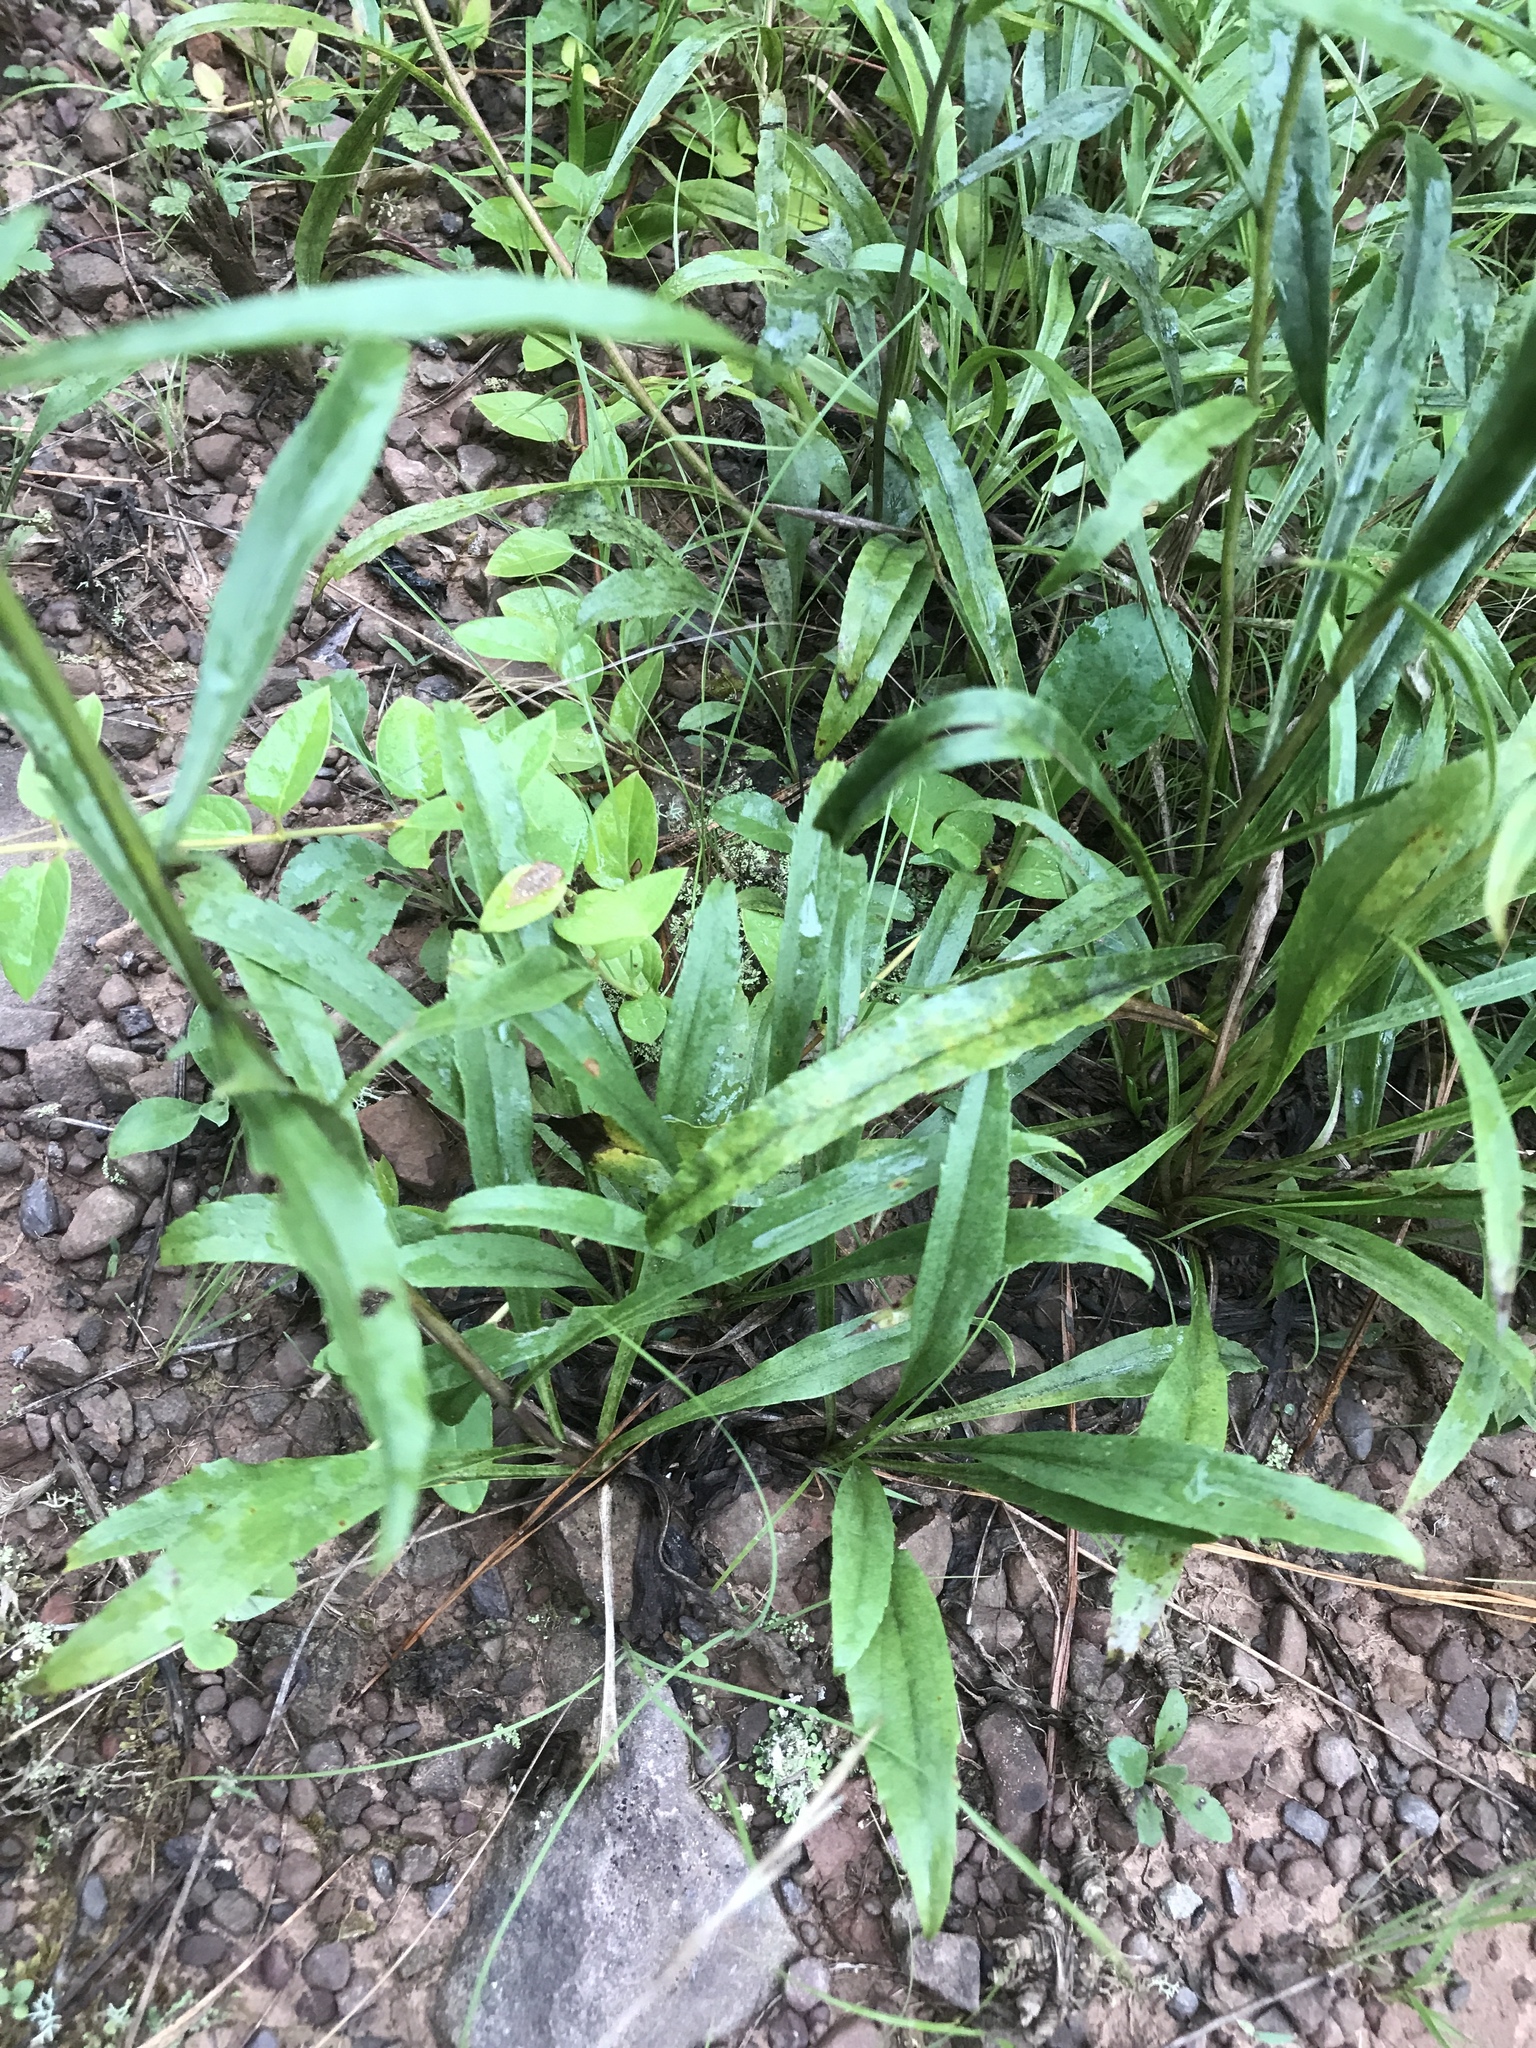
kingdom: Plantae
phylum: Tracheophyta
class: Magnoliopsida
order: Asterales
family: Asteraceae
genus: Solidago
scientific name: Solidago pinetorum
